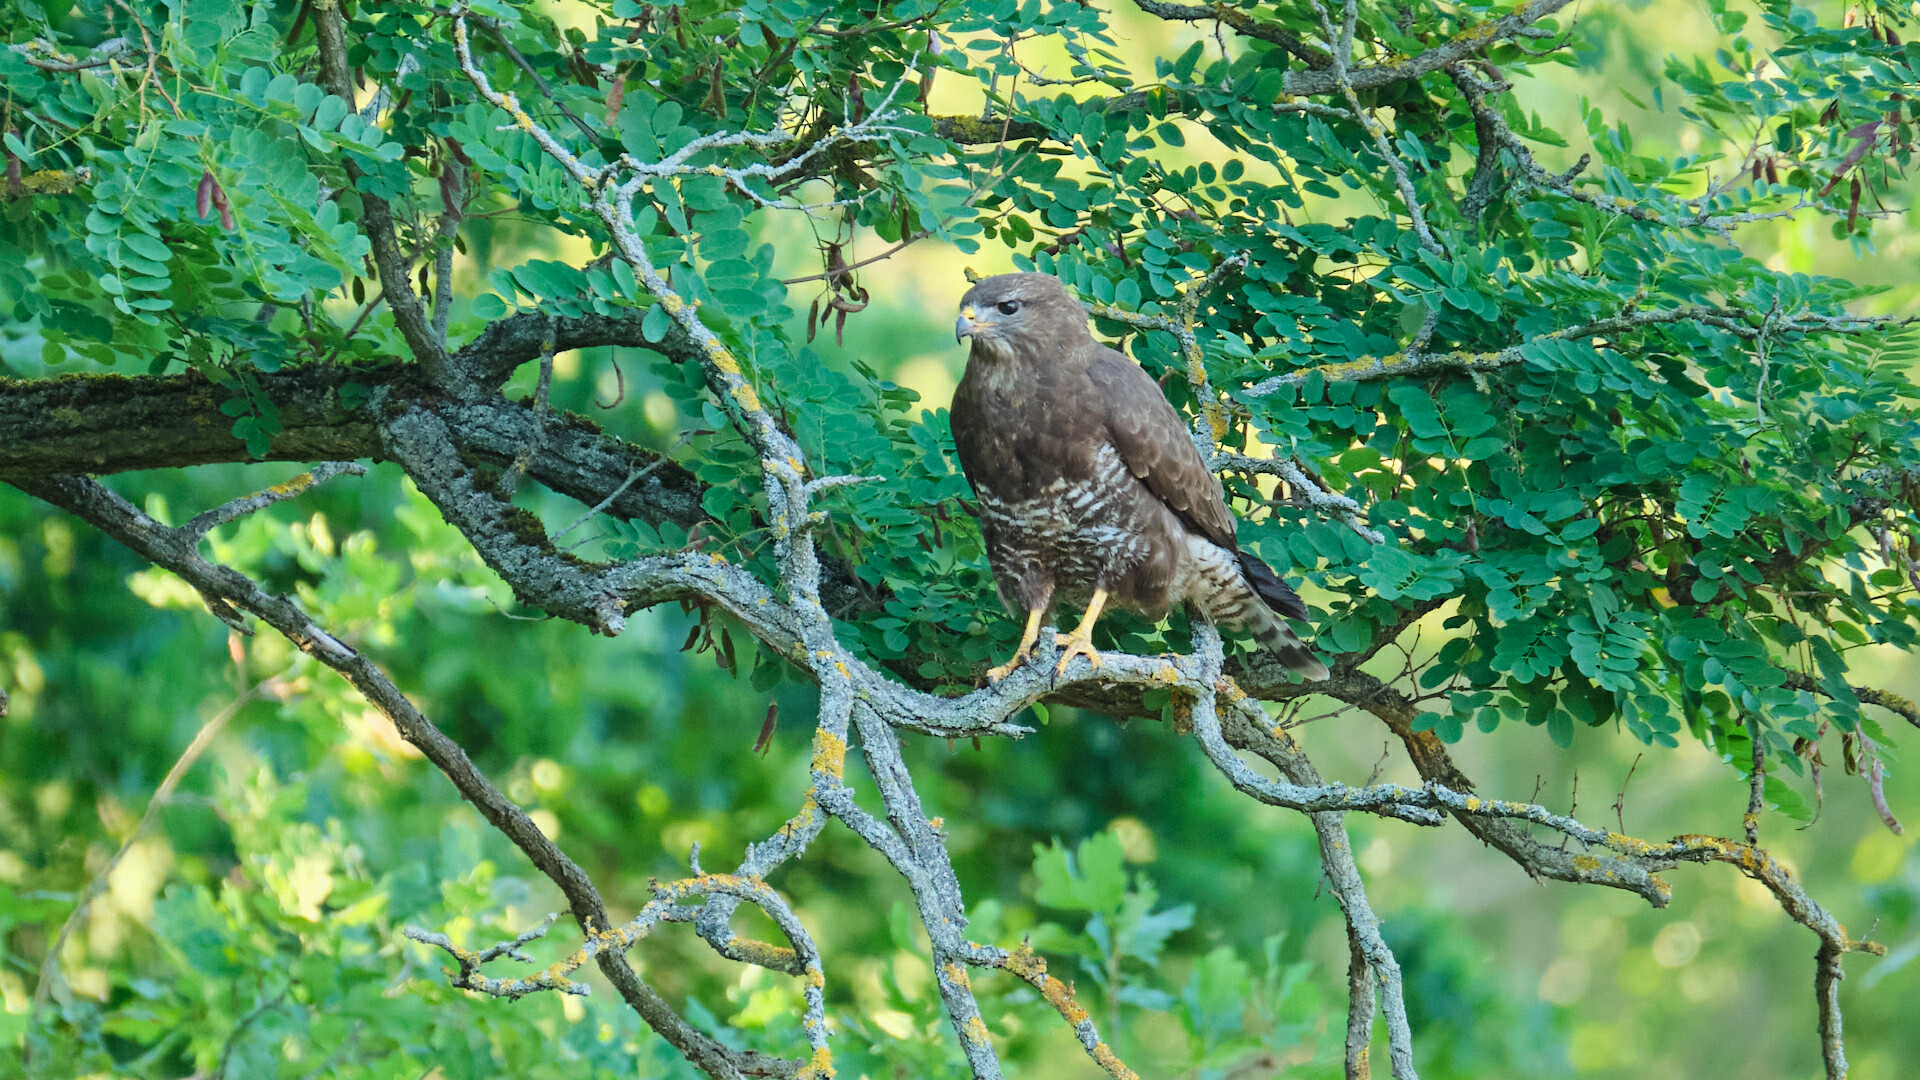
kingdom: Animalia
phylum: Chordata
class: Aves
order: Accipitriformes
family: Accipitridae
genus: Buteo
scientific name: Buteo buteo
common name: Common buzzard
